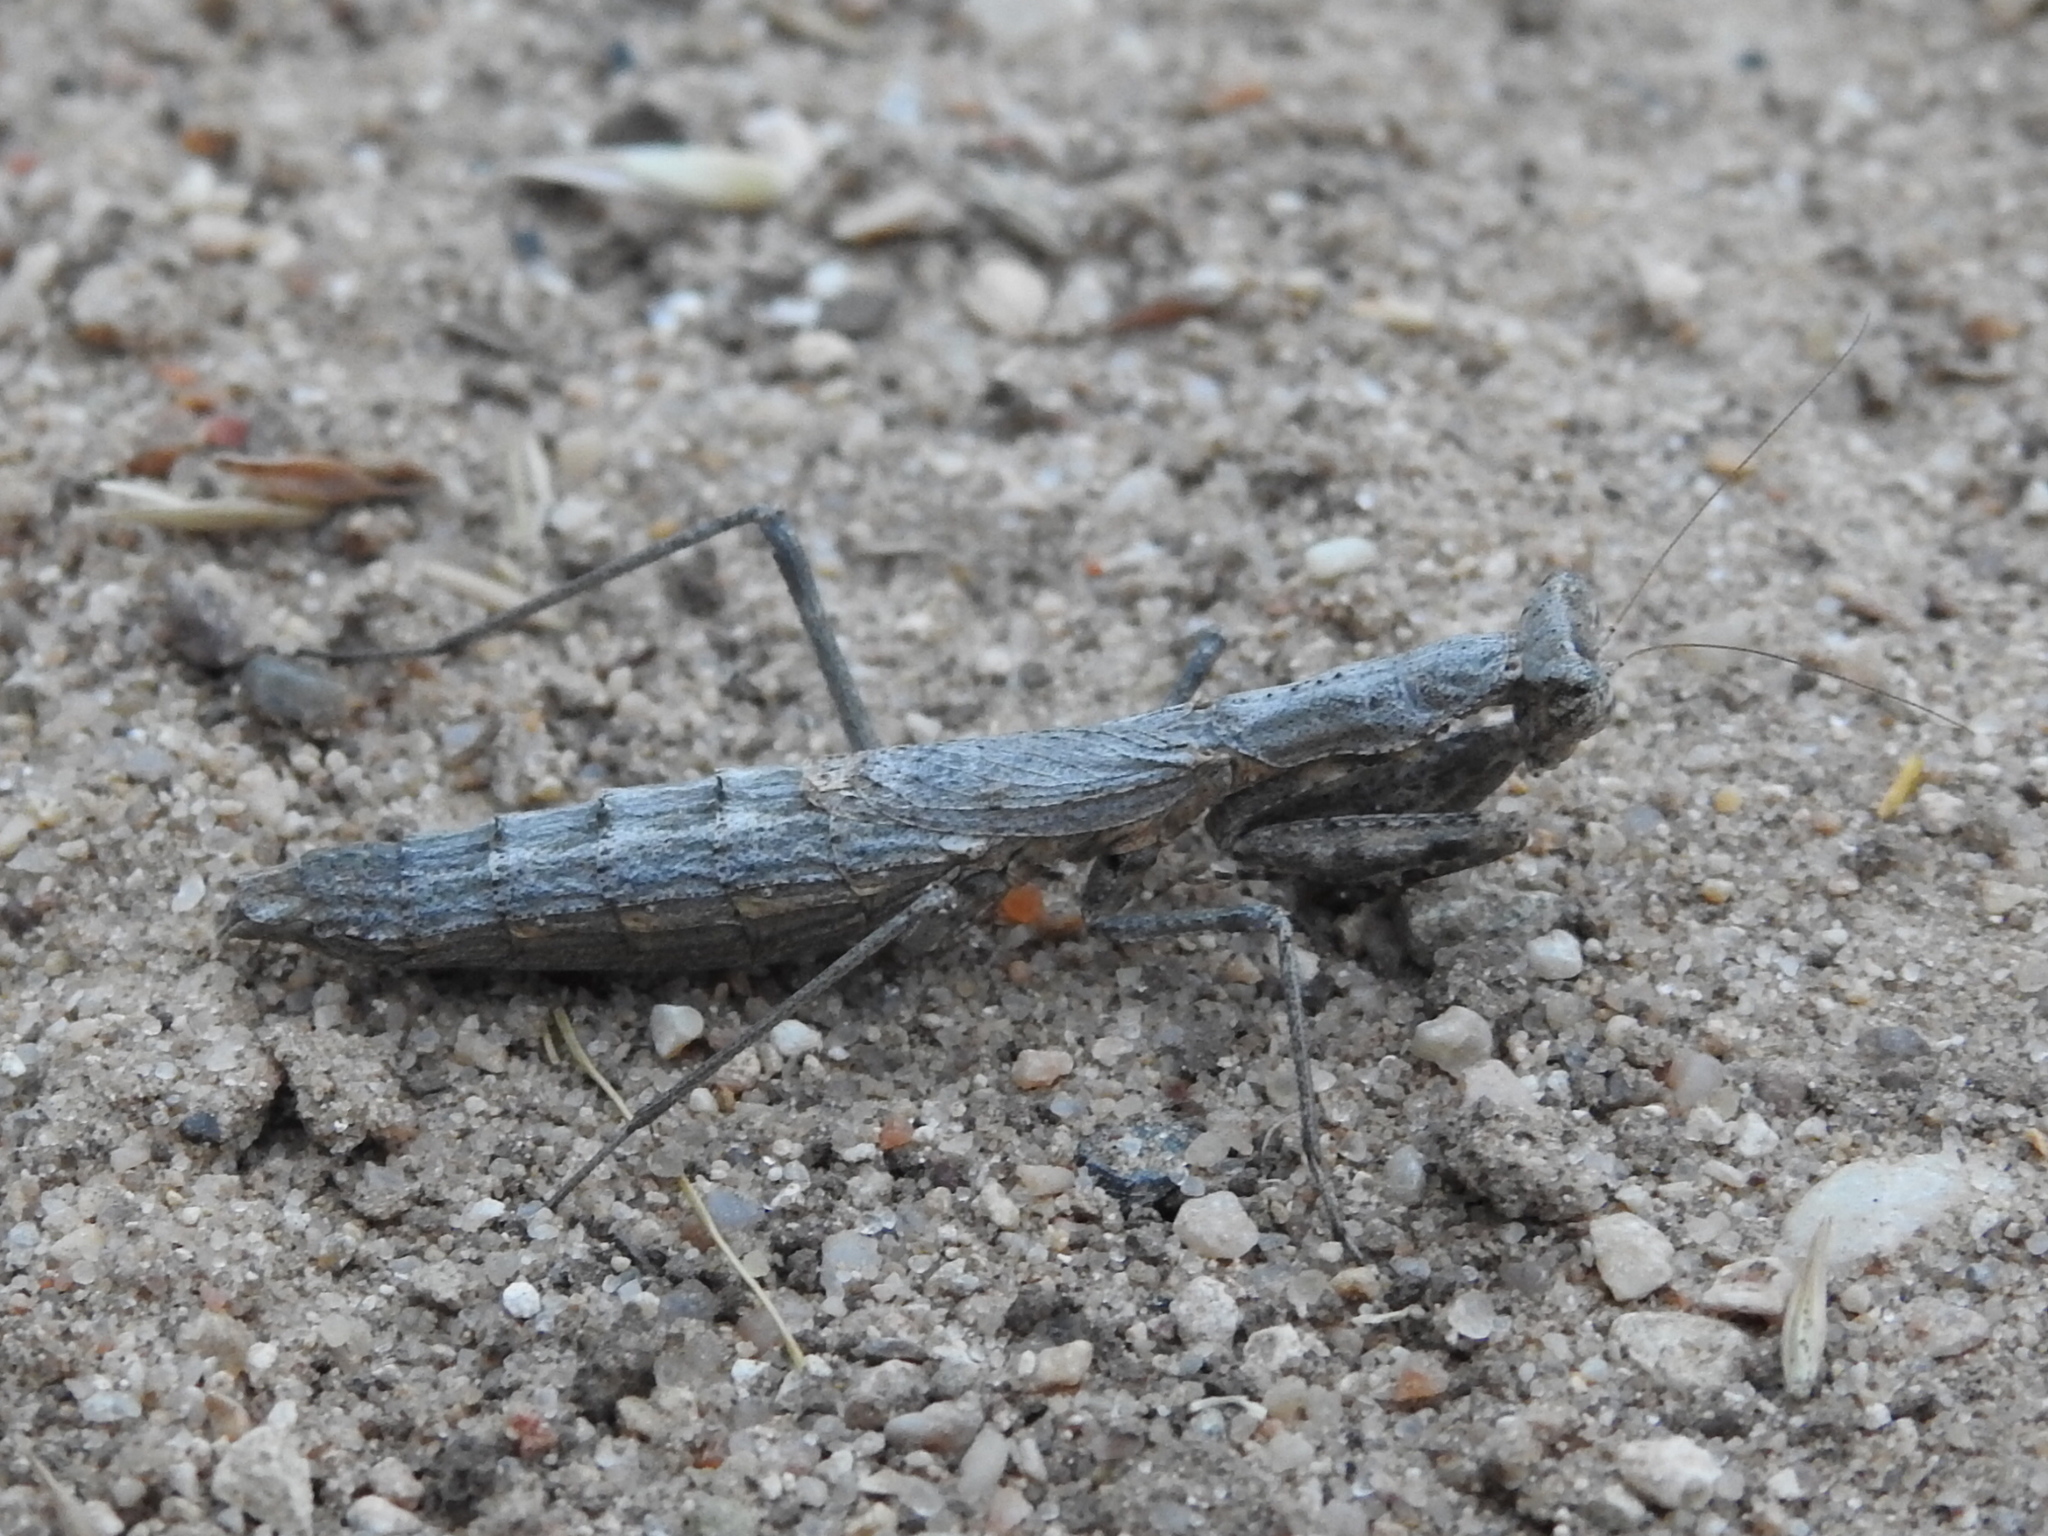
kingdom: Animalia
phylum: Arthropoda
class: Insecta
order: Mantodea
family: Amelidae
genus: Litaneutria
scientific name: Litaneutria minor
